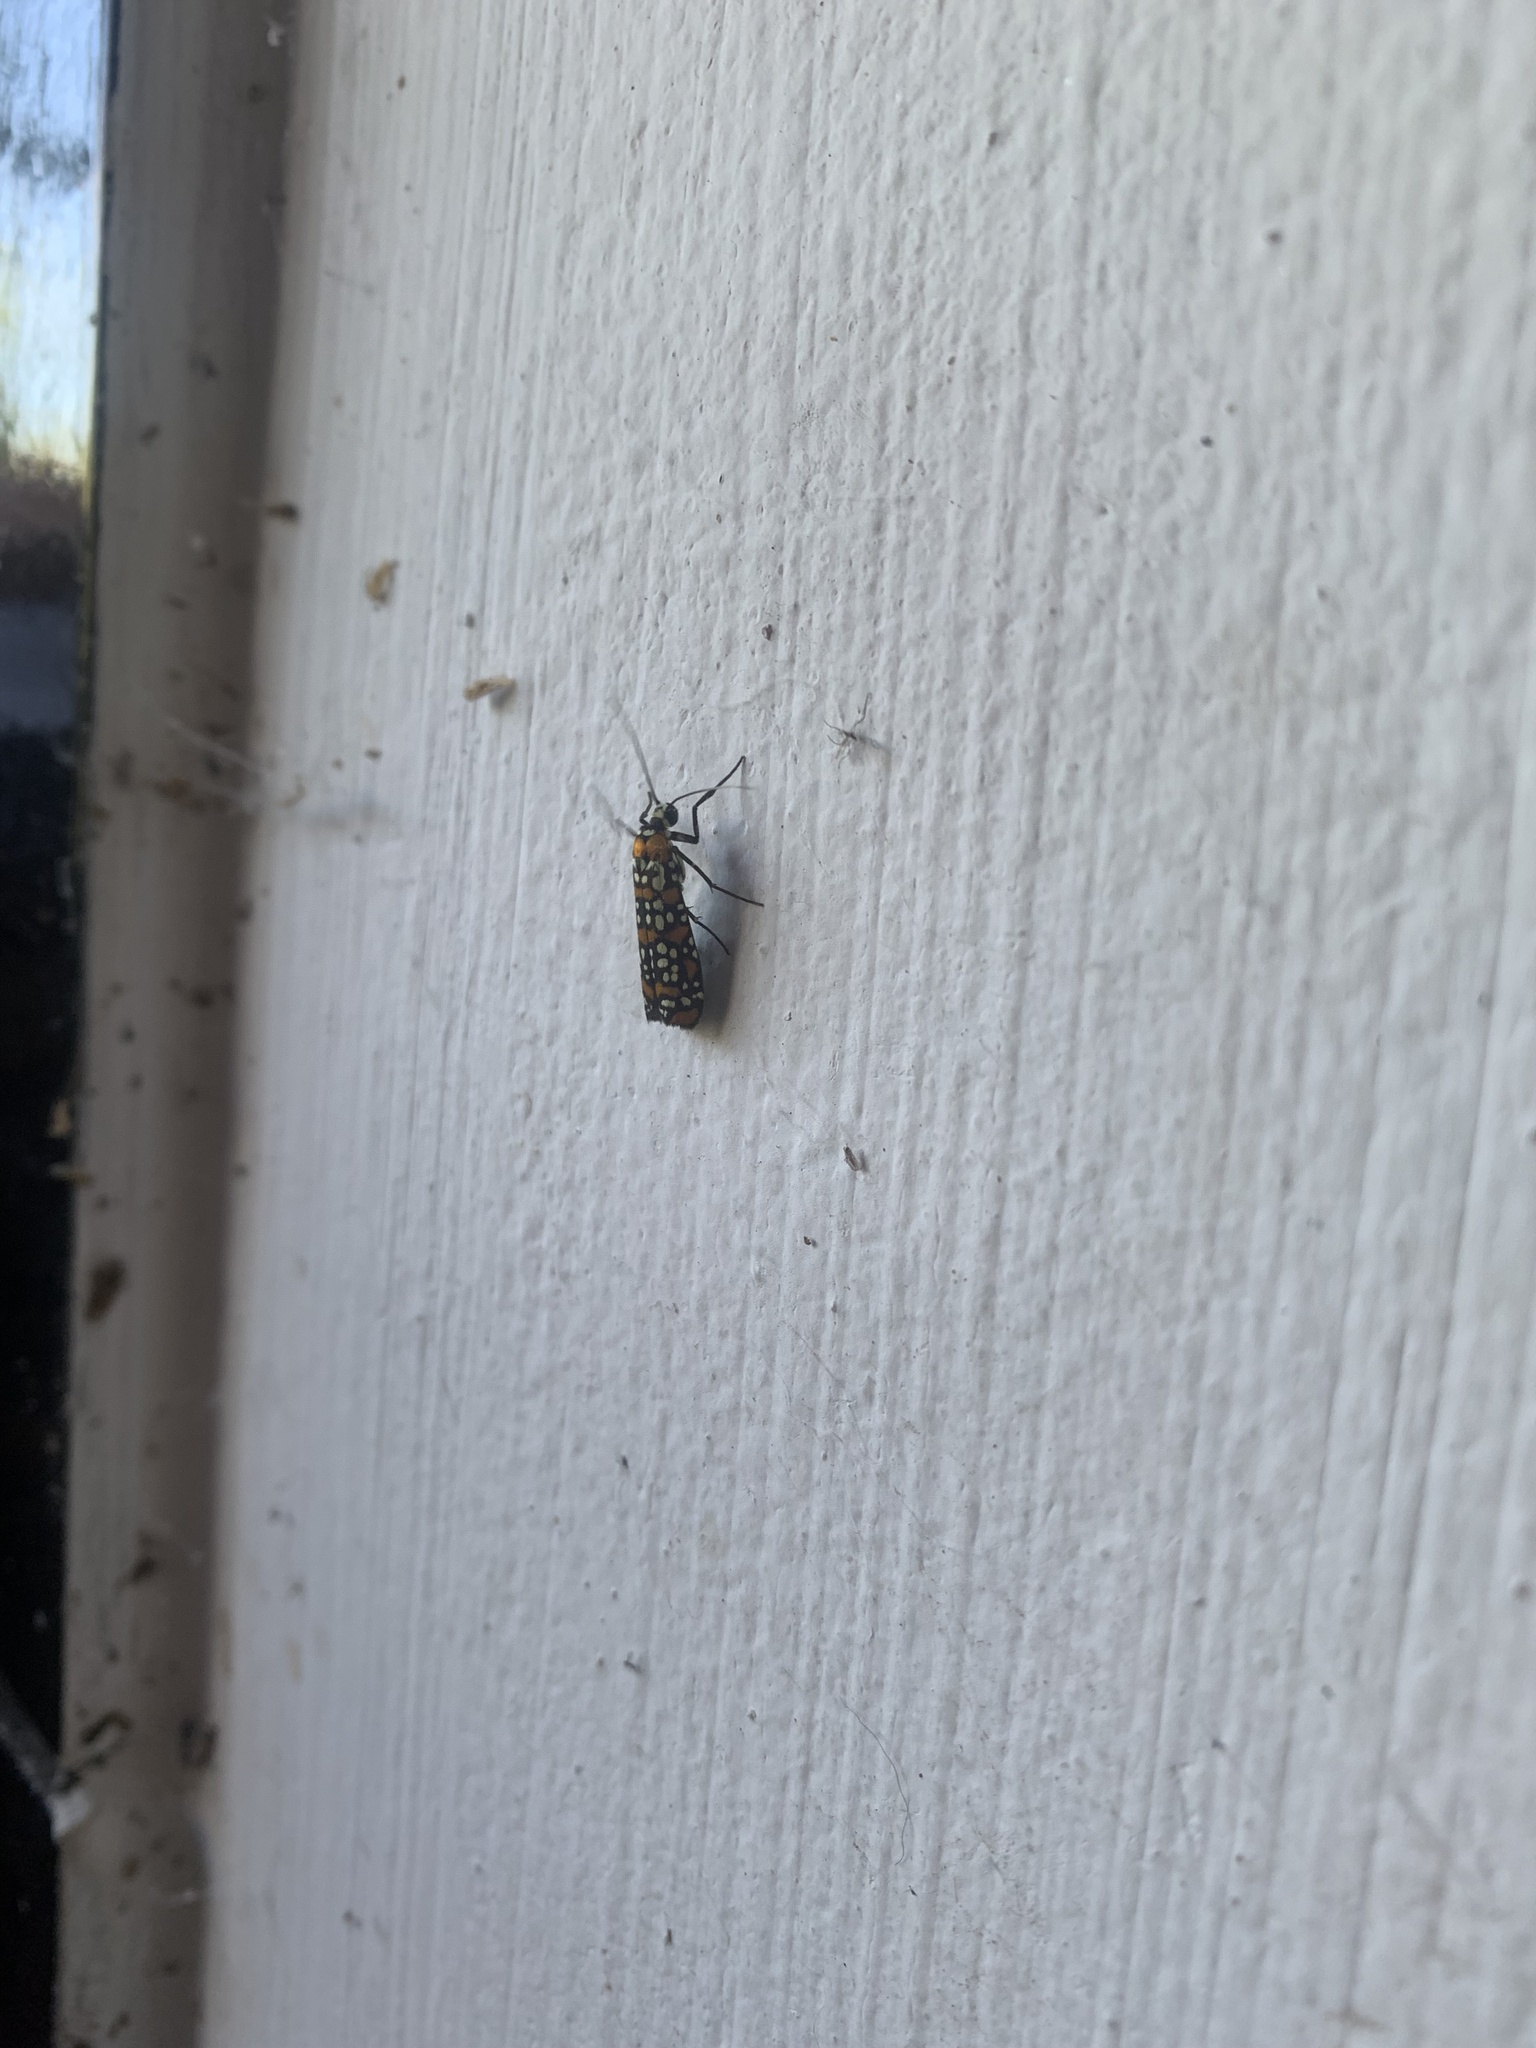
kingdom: Animalia
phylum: Arthropoda
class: Insecta
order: Lepidoptera
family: Attevidae
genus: Atteva
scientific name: Atteva punctella
